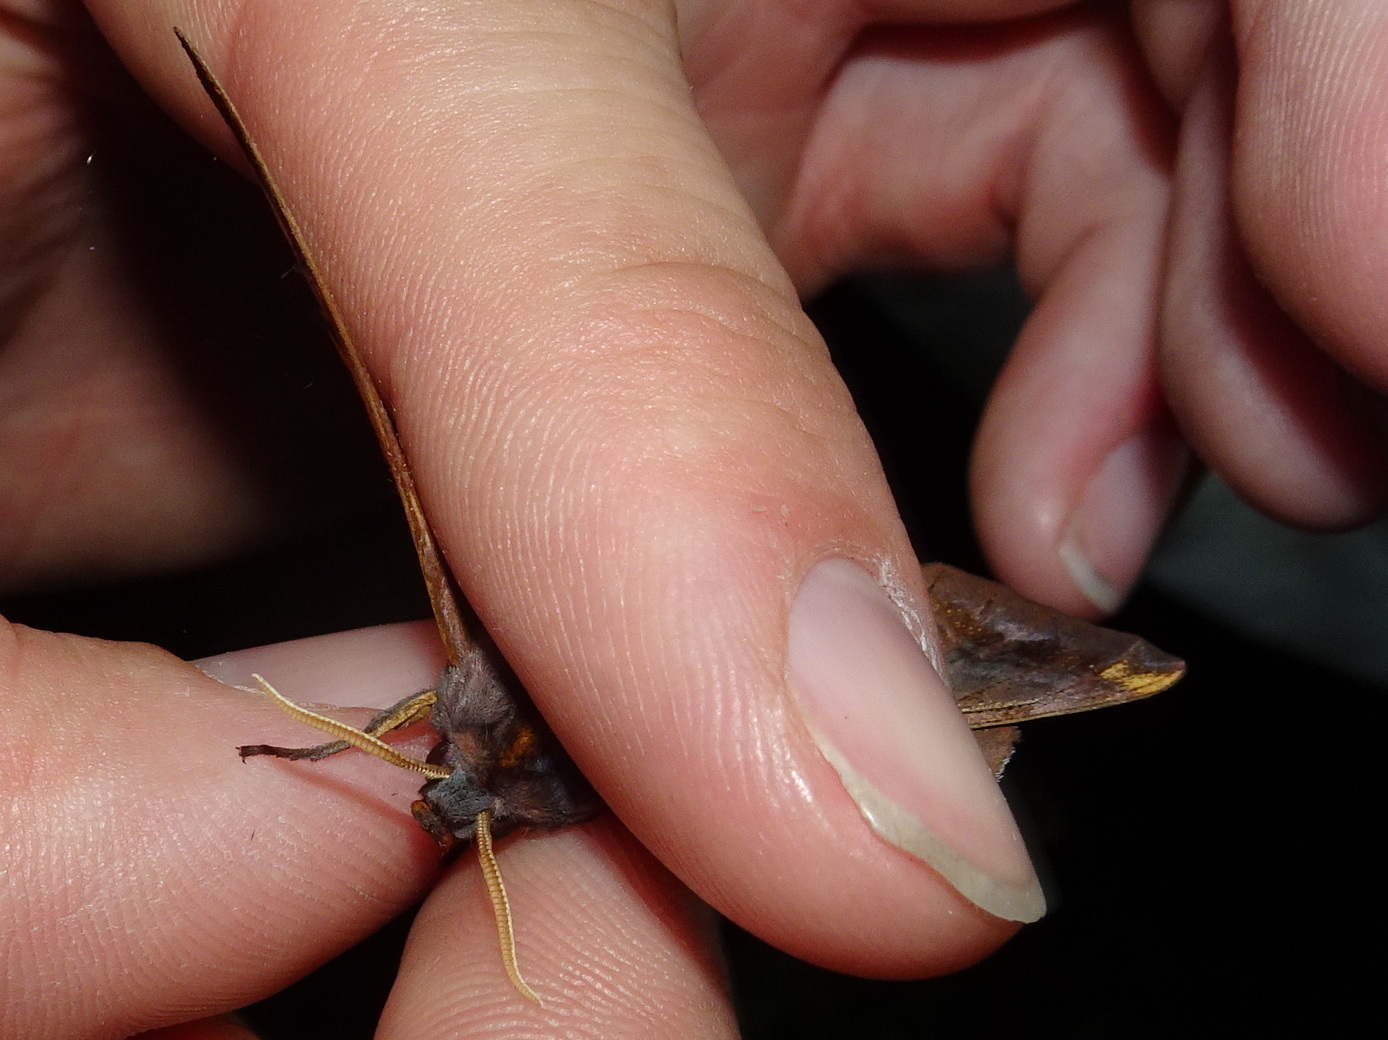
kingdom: Animalia
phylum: Arthropoda
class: Insecta
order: Lepidoptera
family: Sphingidae
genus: Paonias
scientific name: Paonias myops
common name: Small-eyed sphinx
